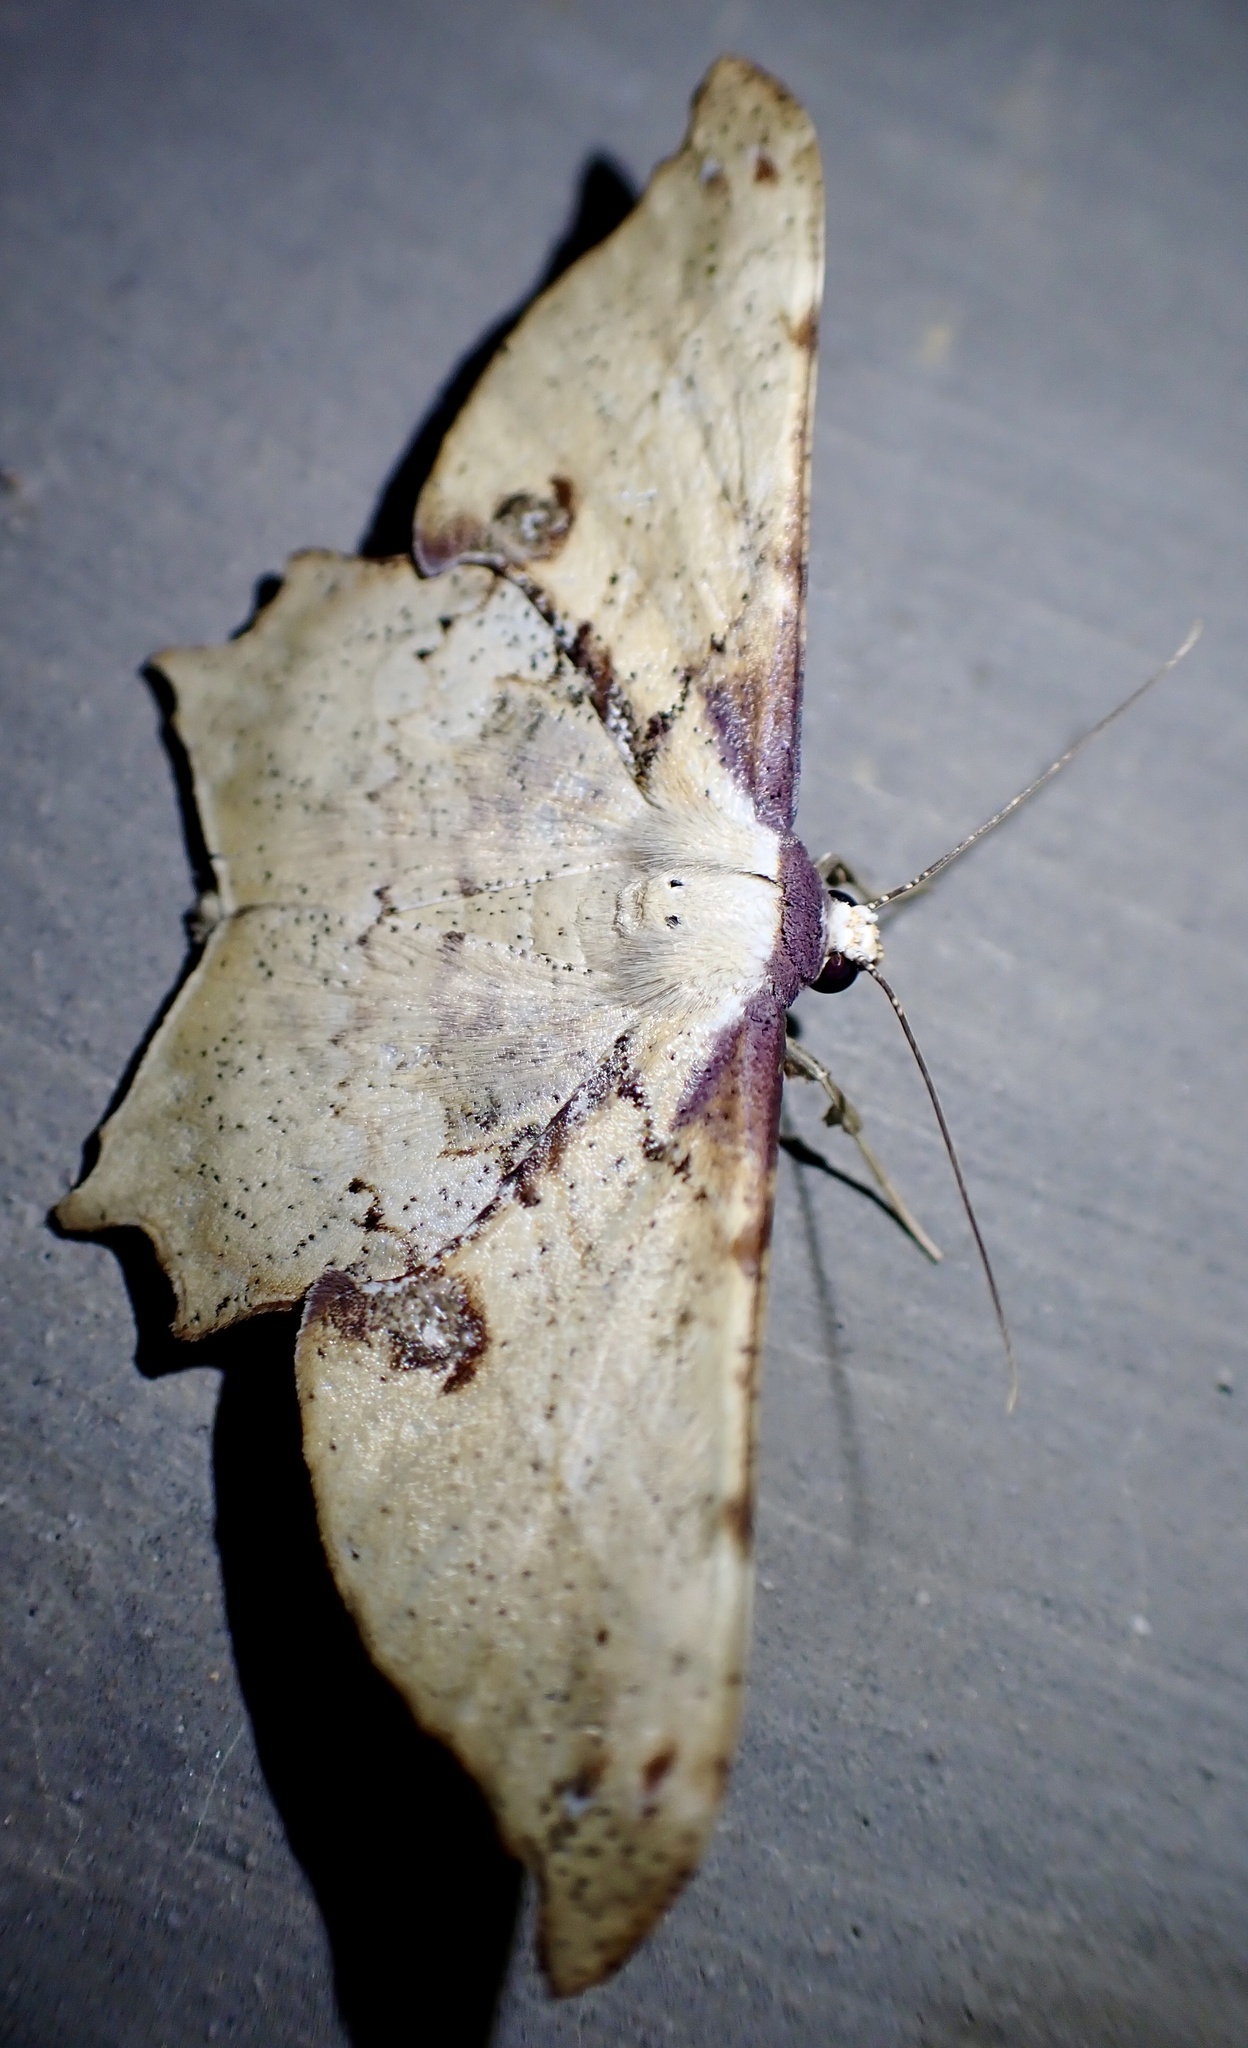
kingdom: Animalia
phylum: Arthropoda
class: Insecta
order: Lepidoptera
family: Geometridae
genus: Xylinophylla
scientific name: Xylinophylla maculata
